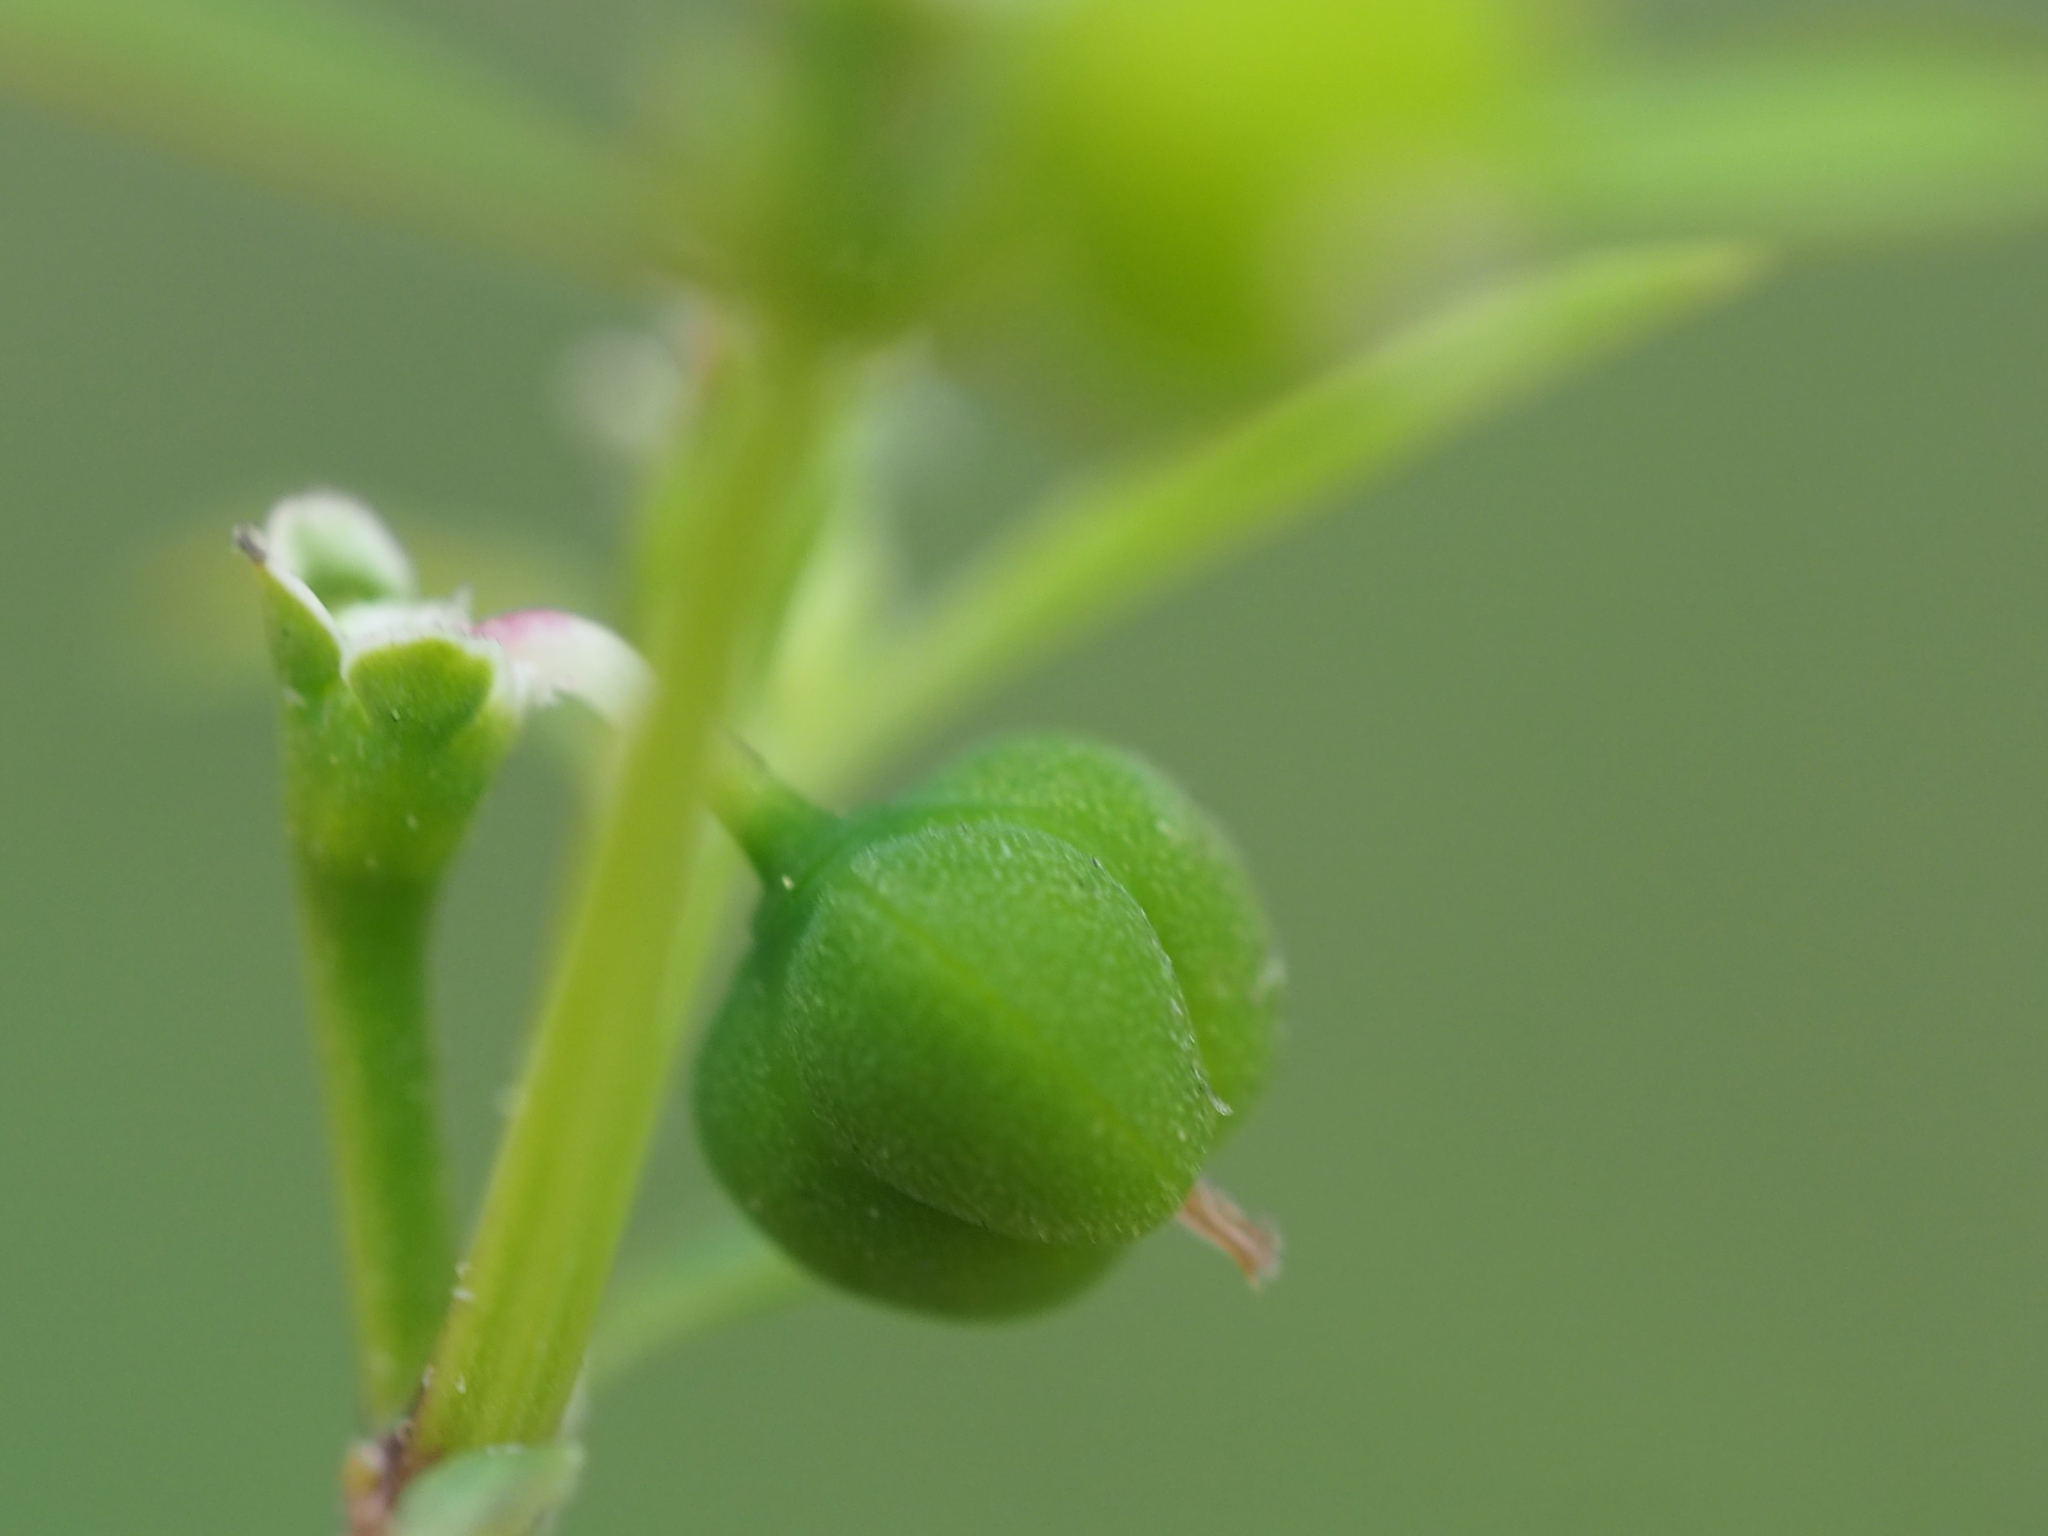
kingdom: Plantae
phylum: Tracheophyta
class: Magnoliopsida
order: Malpighiales
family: Euphorbiaceae
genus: Euphorbia
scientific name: Euphorbia graminea
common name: Grassleaf spurge
